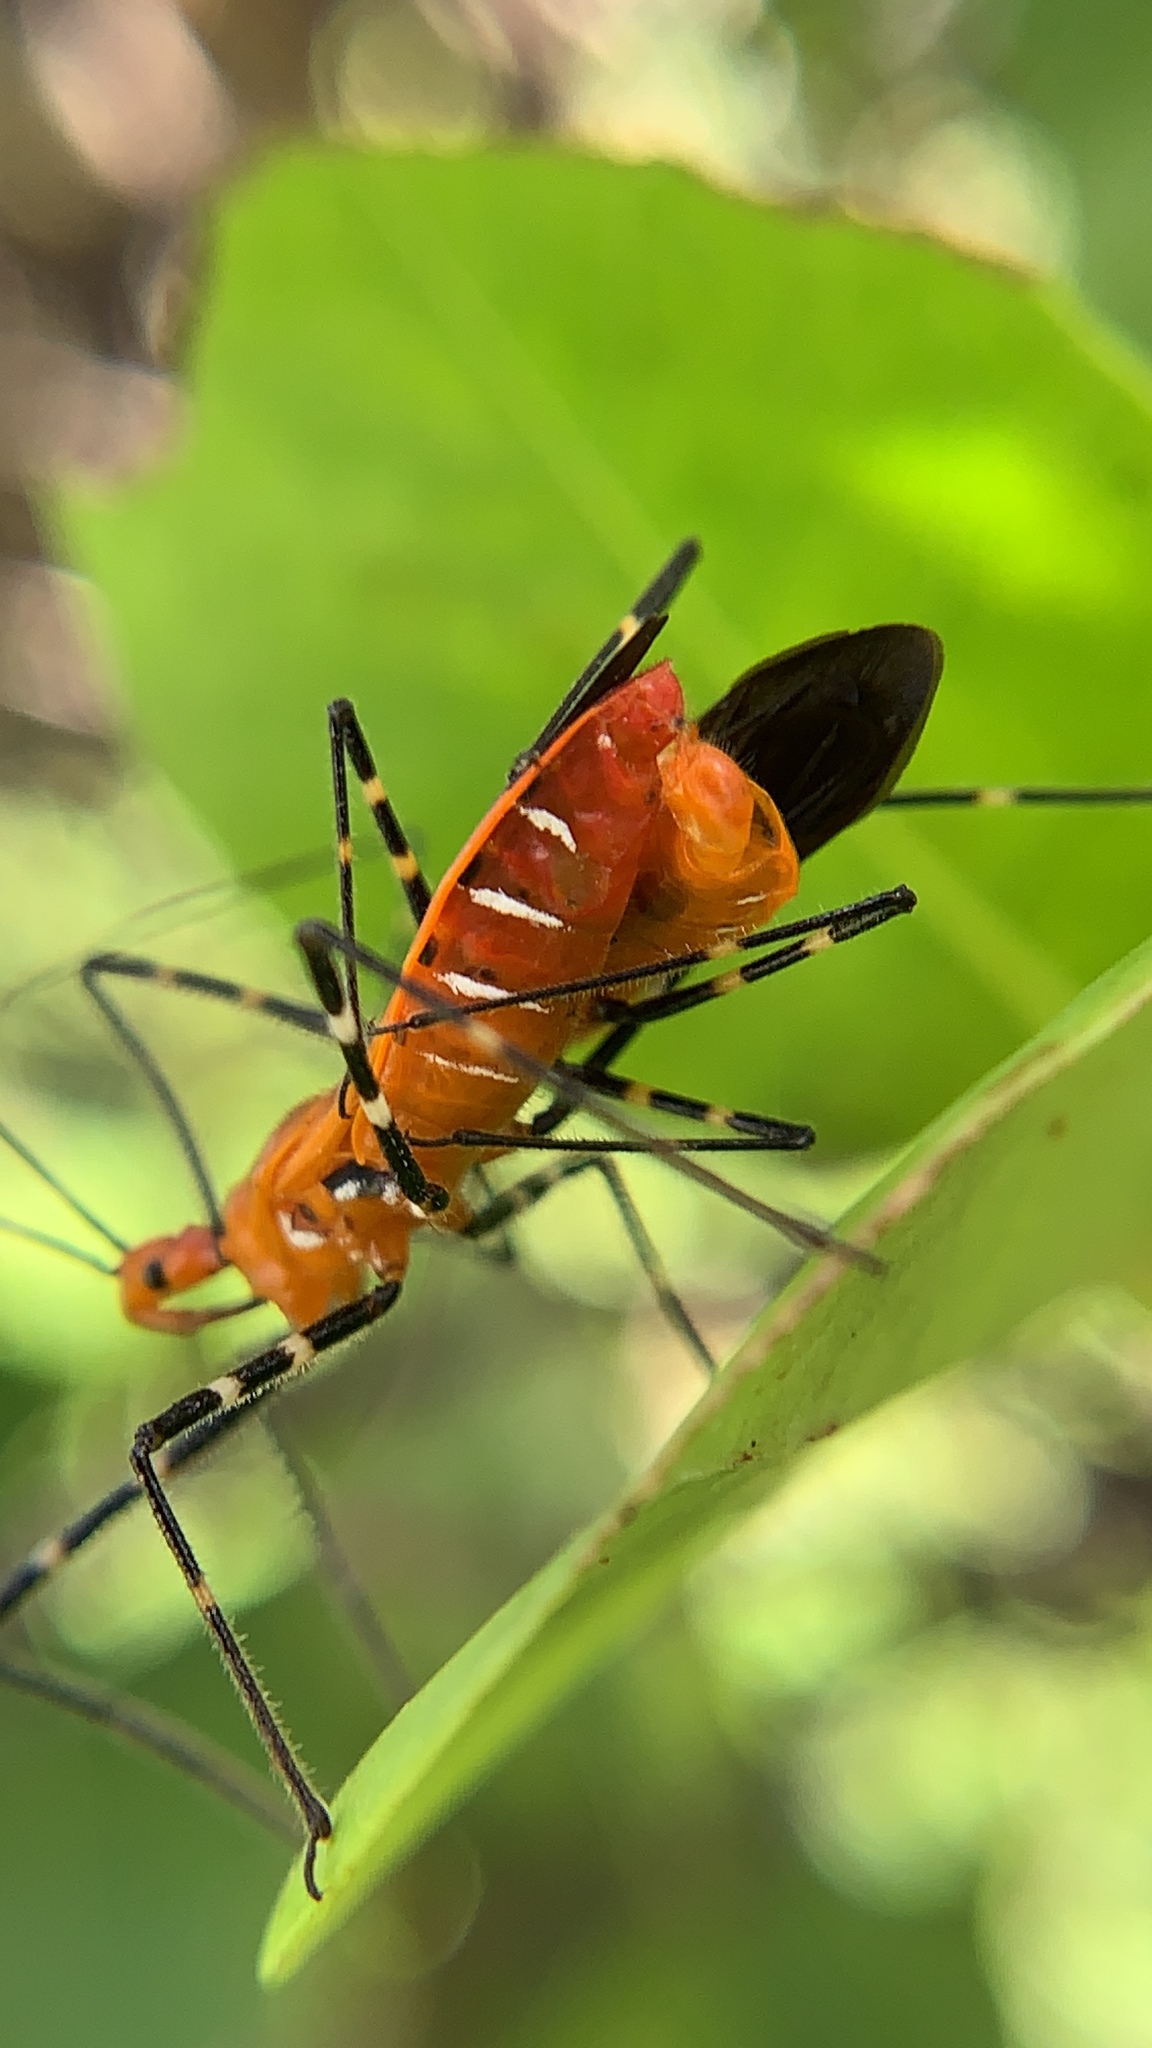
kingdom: Animalia
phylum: Arthropoda
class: Insecta
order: Hemiptera
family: Reduviidae
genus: Zelus
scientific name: Zelus longipes
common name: Milkweed assassin bug
